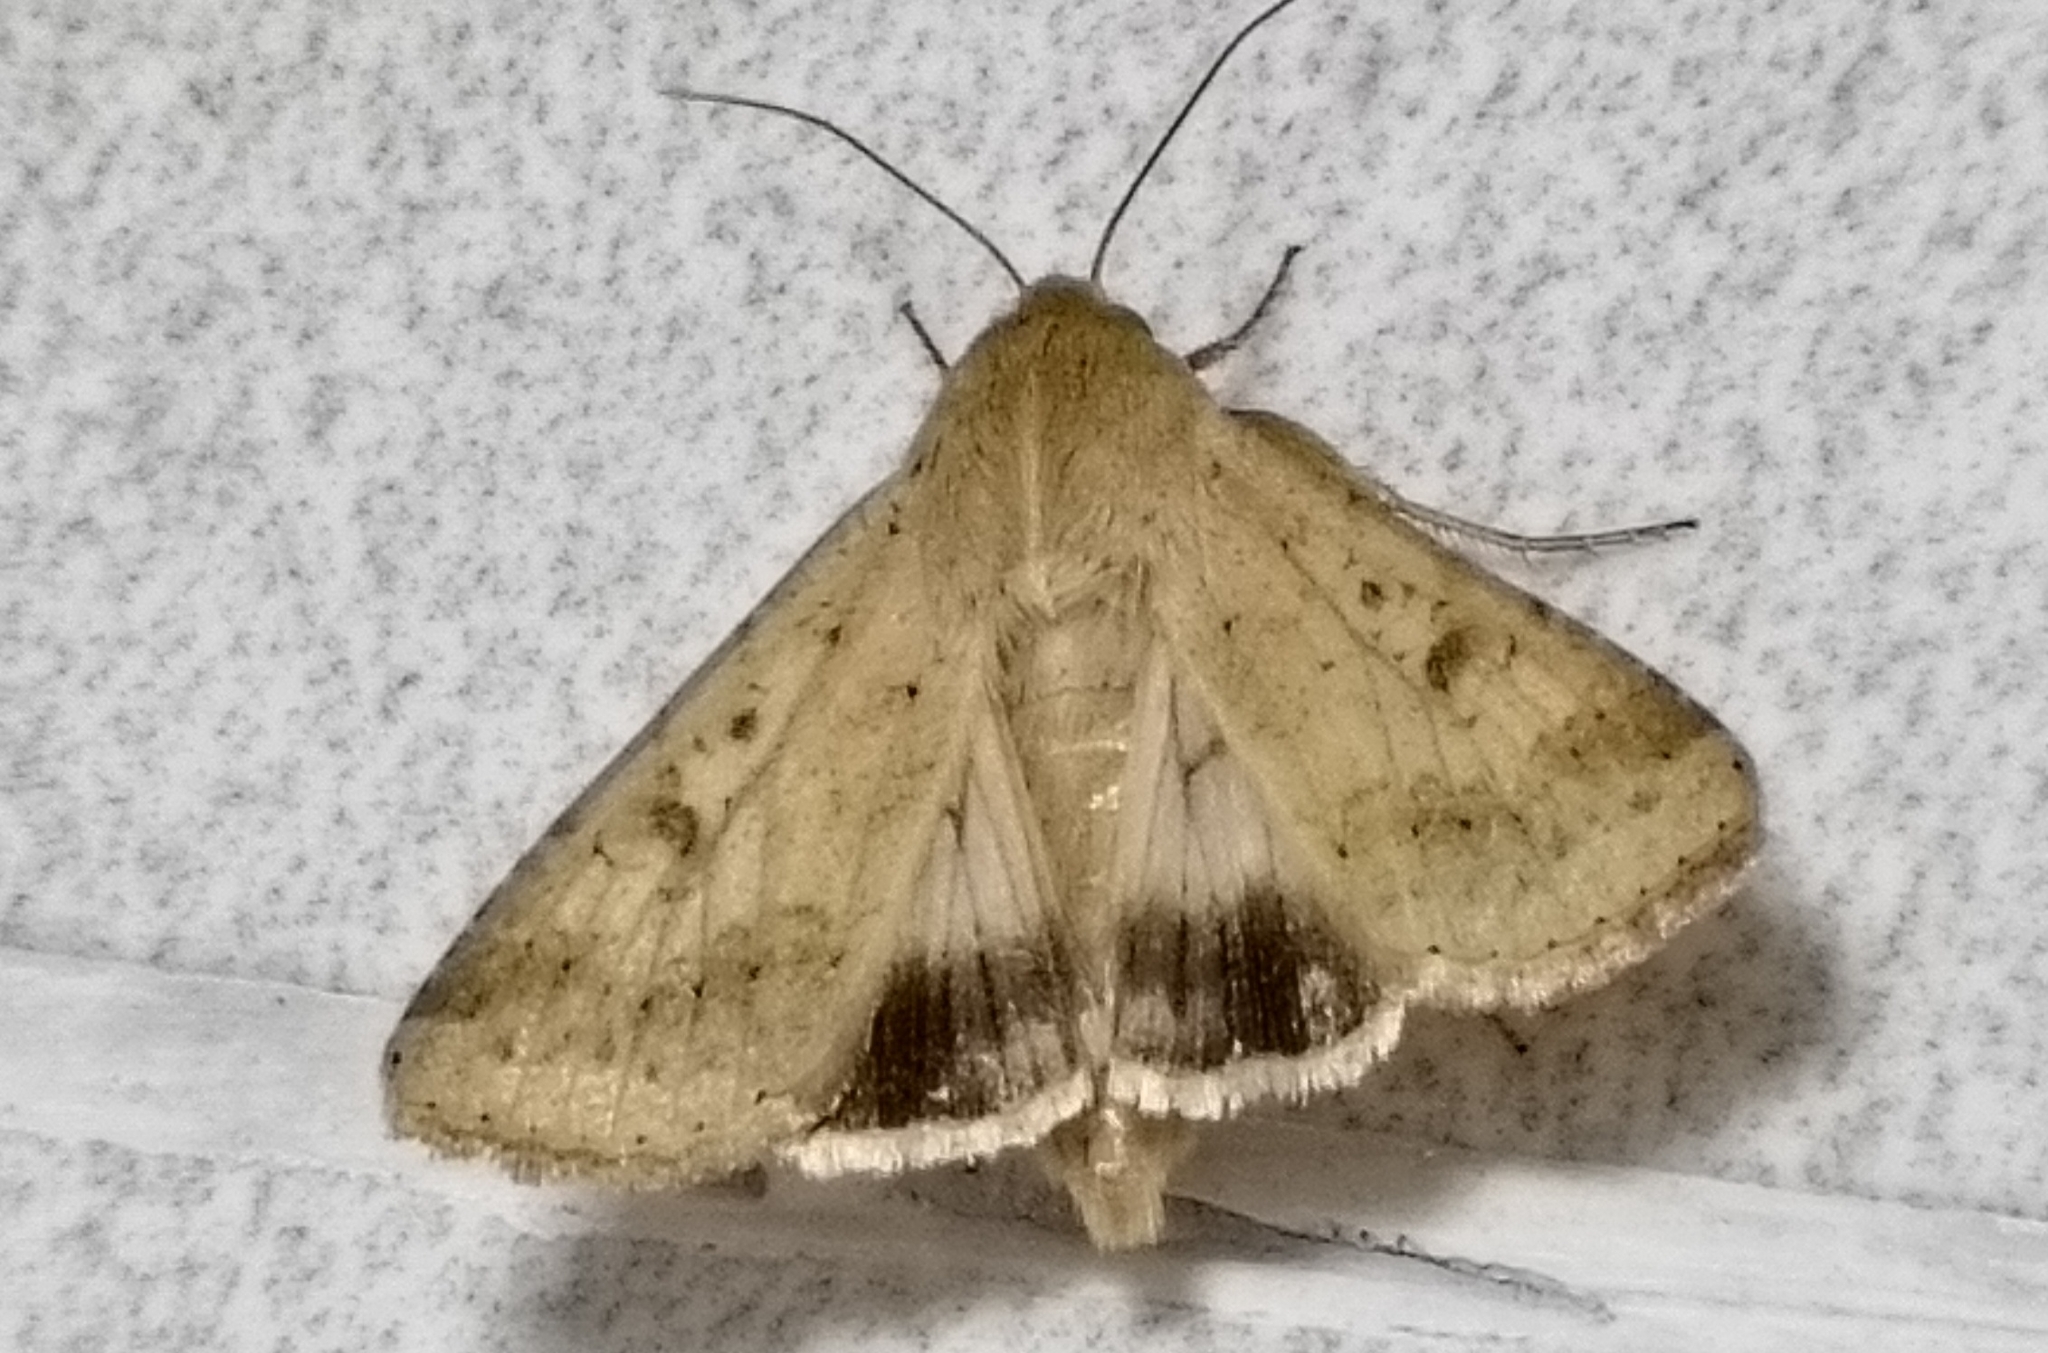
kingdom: Animalia
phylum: Arthropoda
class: Insecta
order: Lepidoptera
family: Noctuidae
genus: Helicoverpa
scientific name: Helicoverpa armigera
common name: Cotton bollworm
